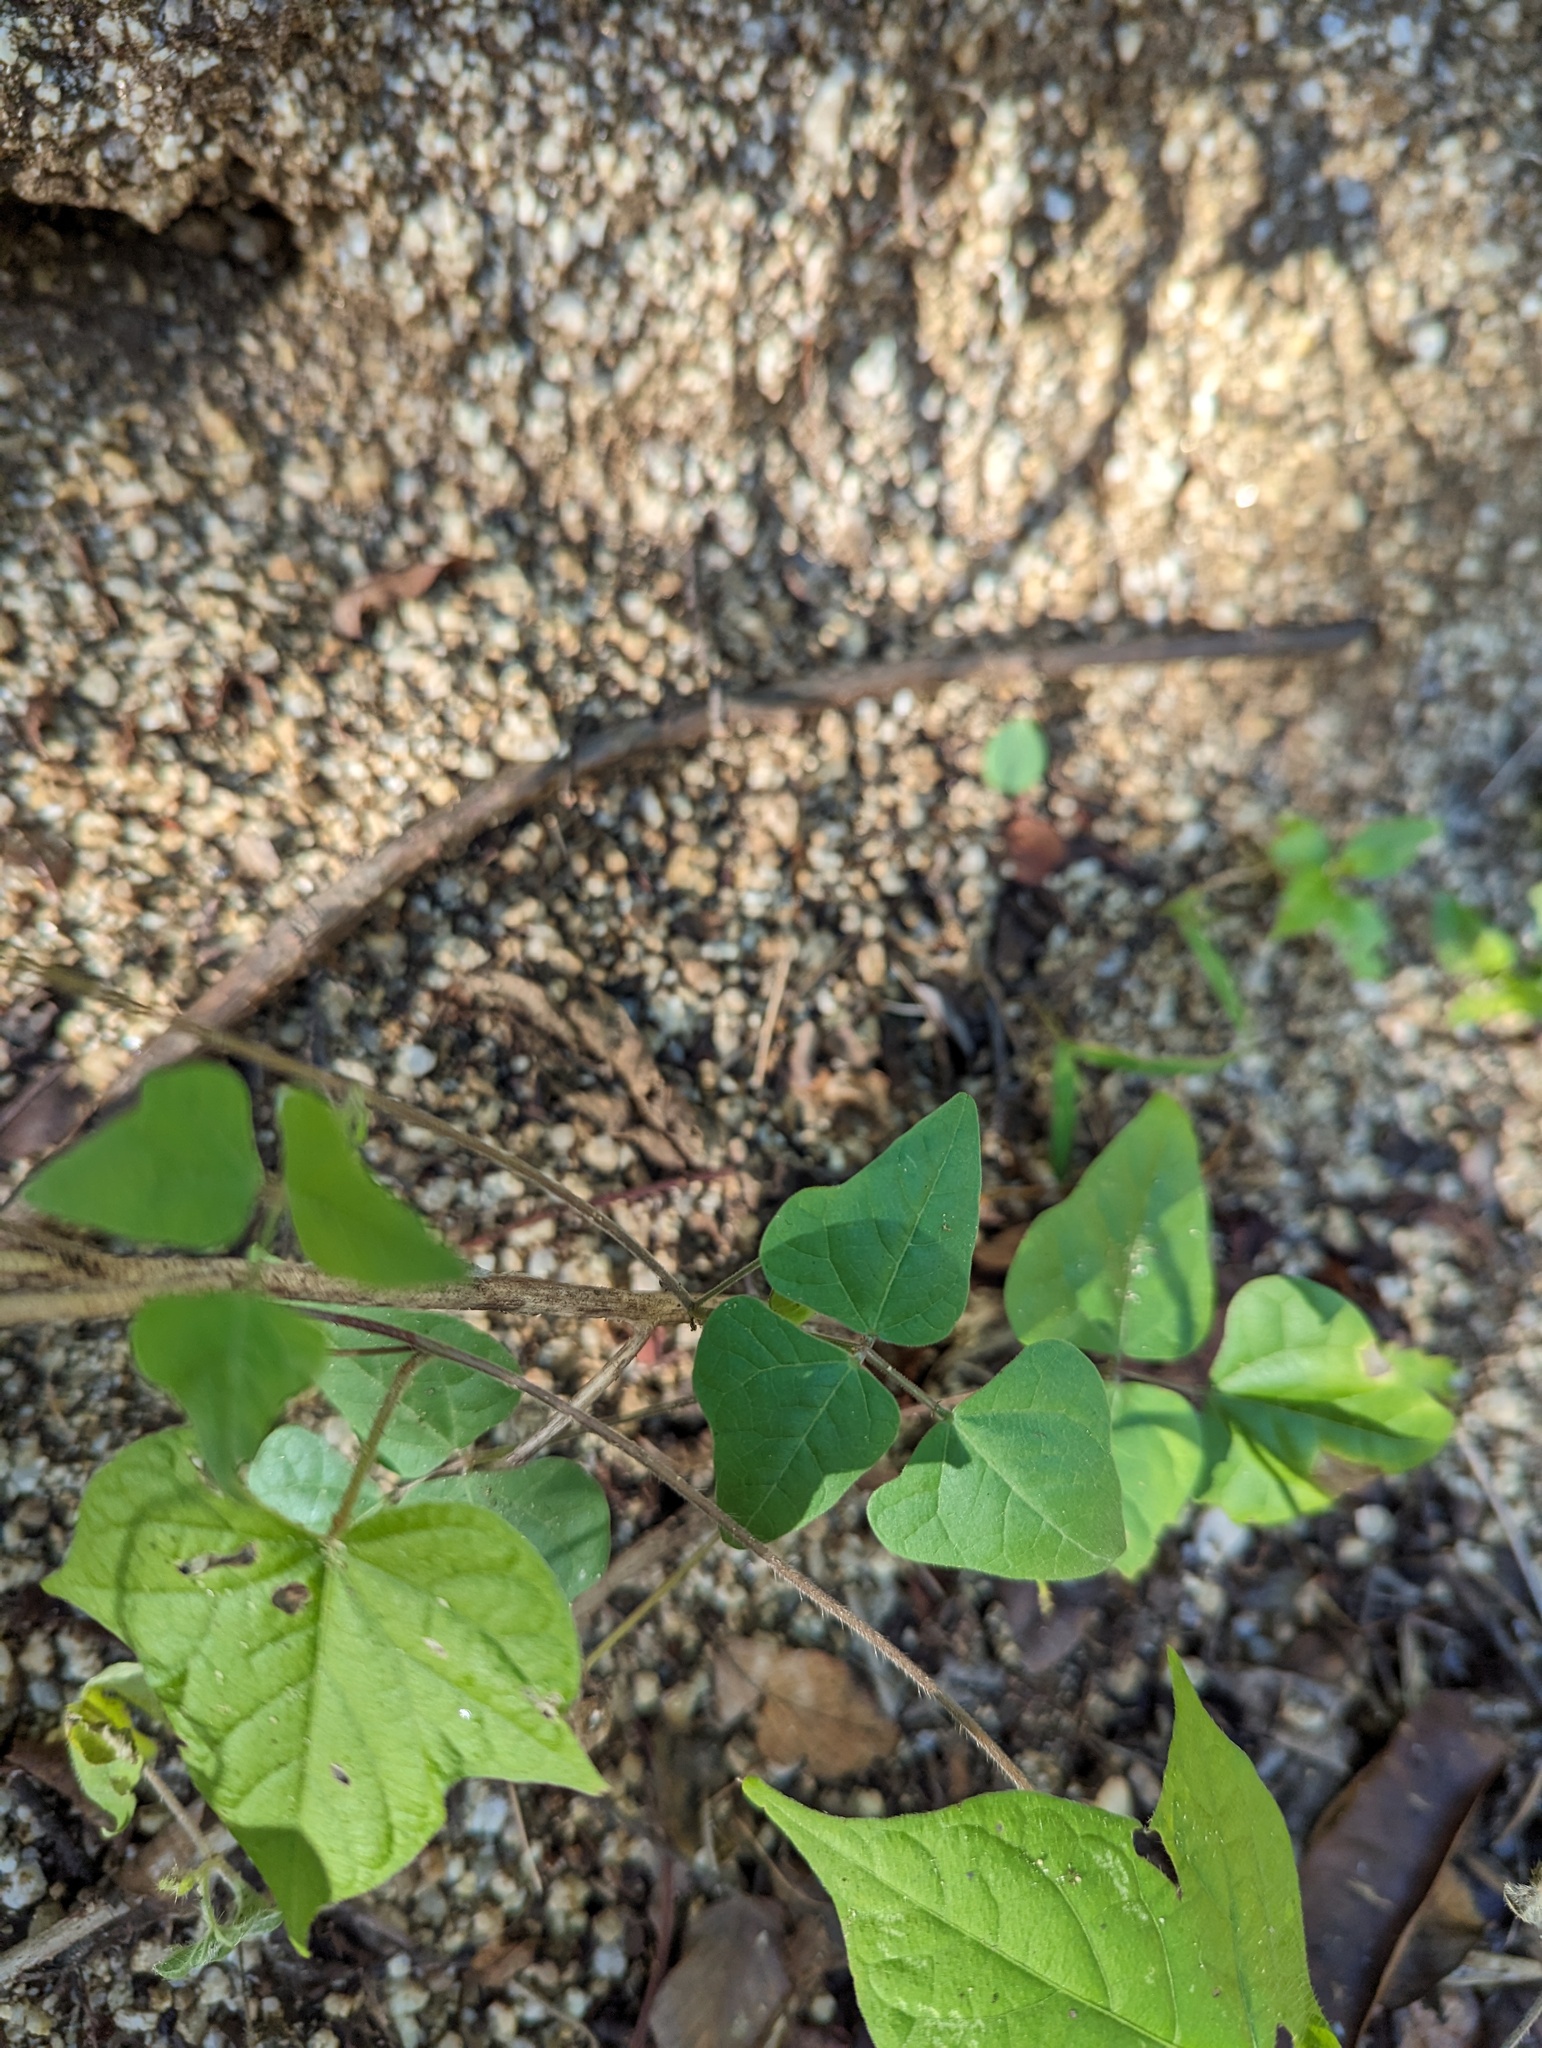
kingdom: Plantae
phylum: Tracheophyta
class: Magnoliopsida
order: Fabales
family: Fabaceae
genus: Phaseolus
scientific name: Phaseolus filiformis
